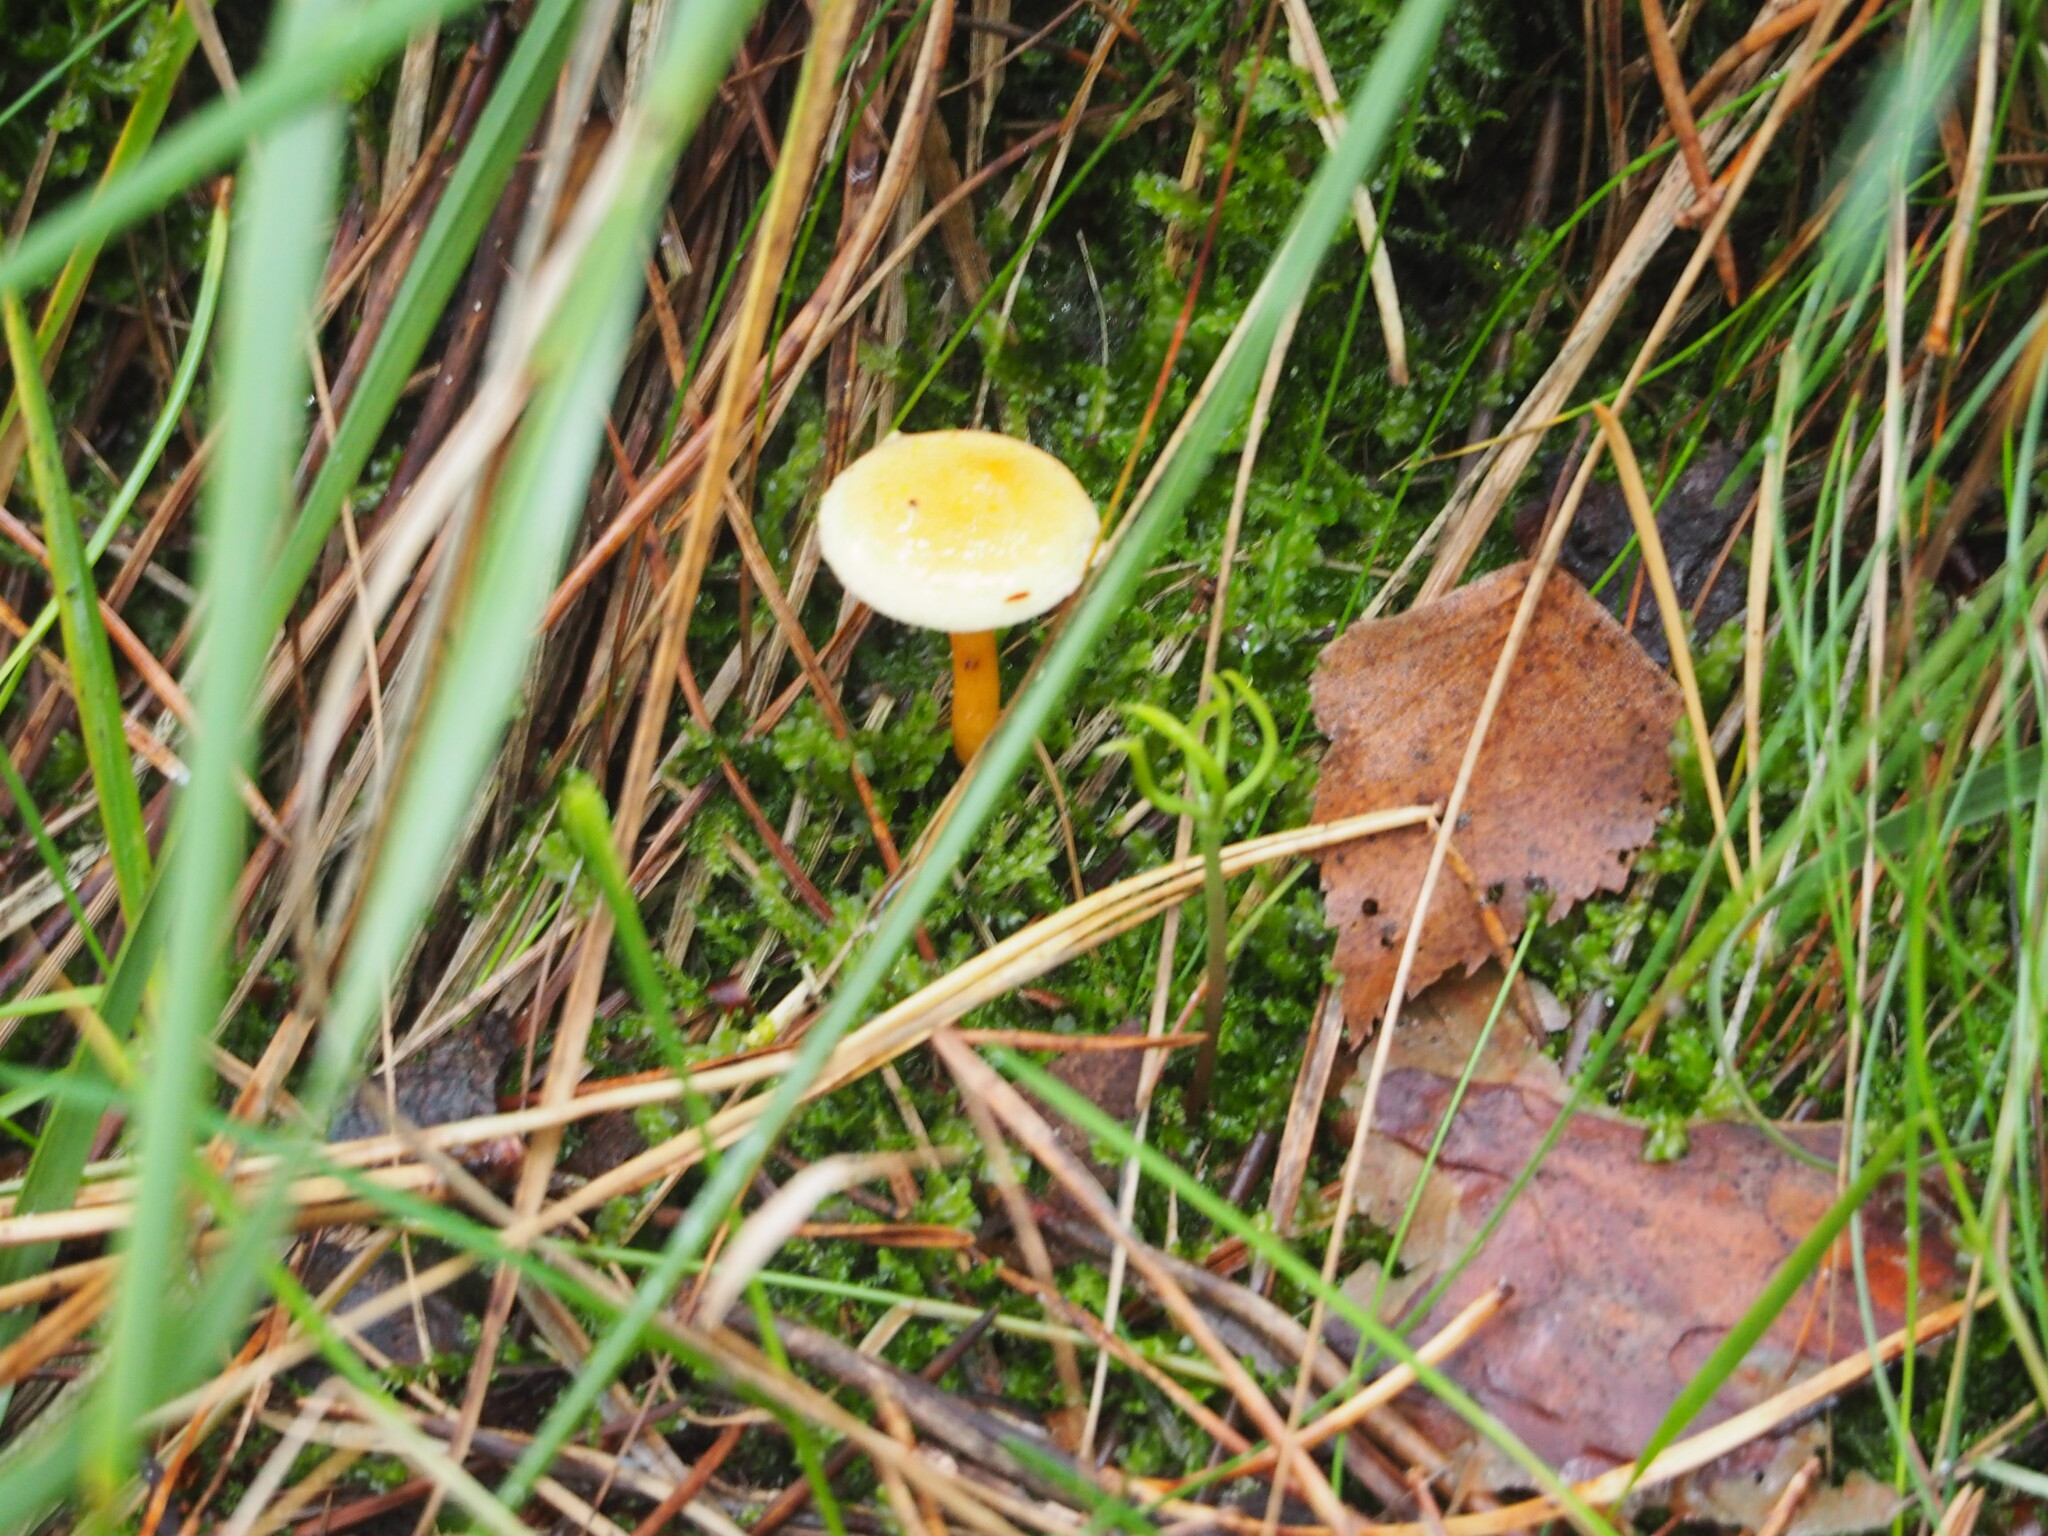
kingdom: Fungi
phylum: Basidiomycota
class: Agaricomycetes
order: Boletales
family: Hygrophoropsidaceae
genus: Hygrophoropsis
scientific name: Hygrophoropsis aurantiaca
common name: False chanterelle
